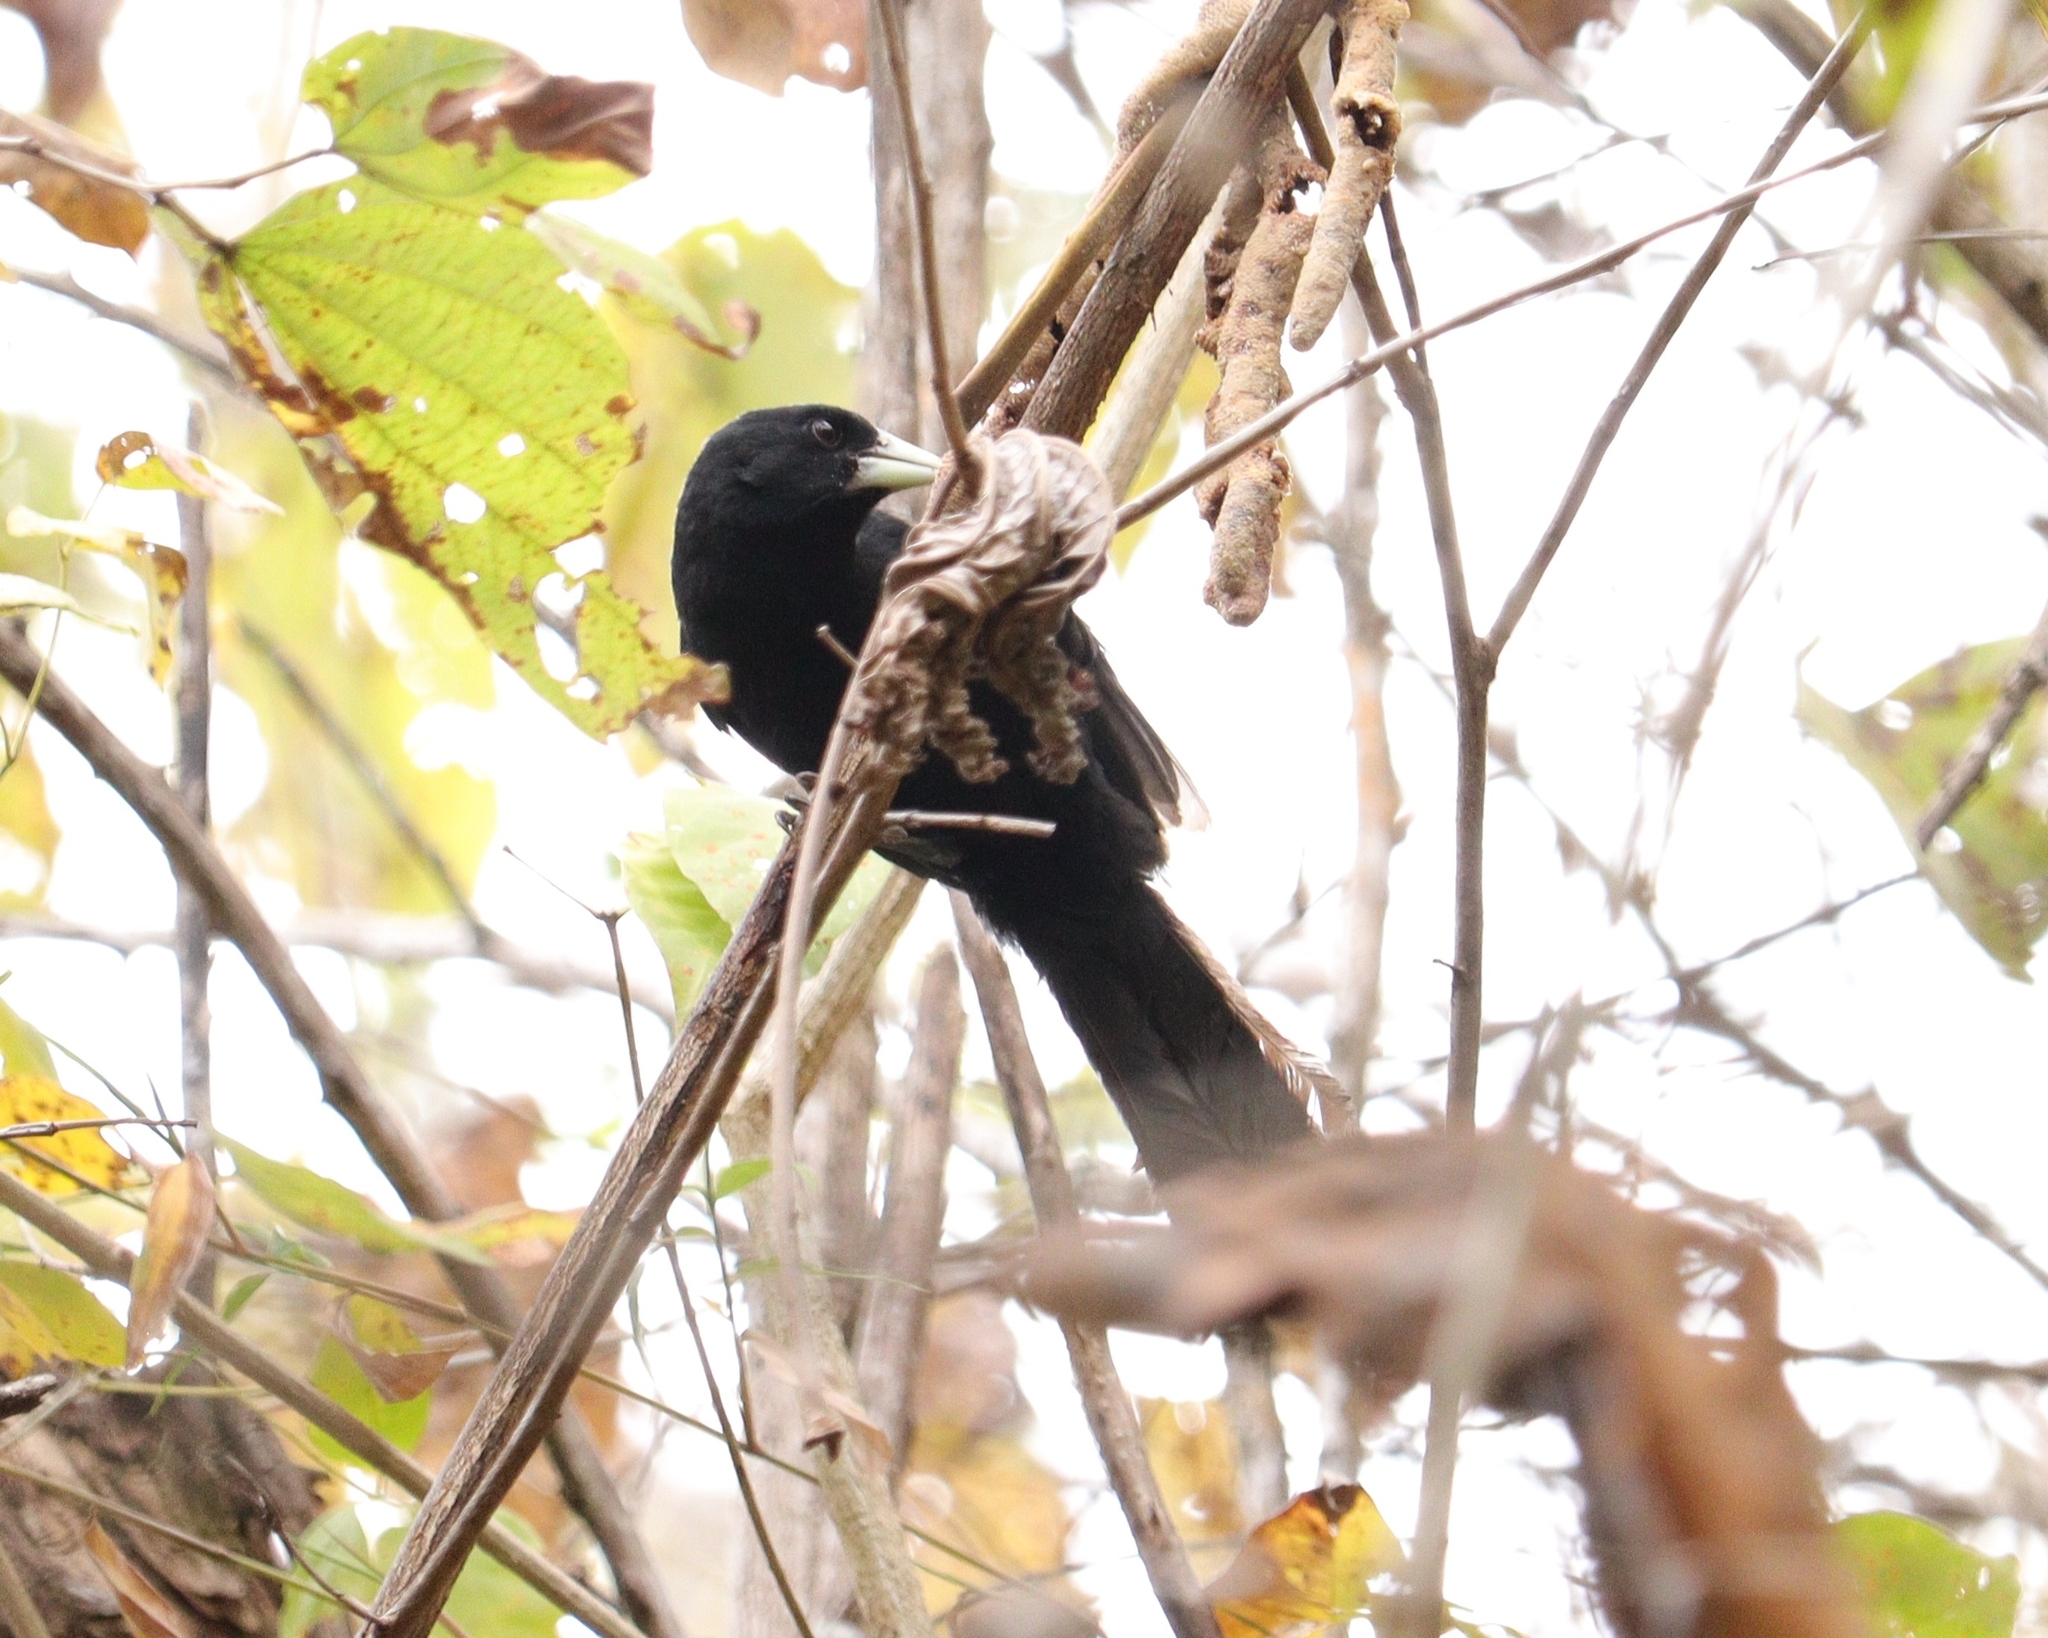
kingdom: Animalia
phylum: Chordata
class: Aves
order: Passeriformes
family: Icteridae
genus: Cacicus
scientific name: Cacicus solitarius
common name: Solitary cacique
